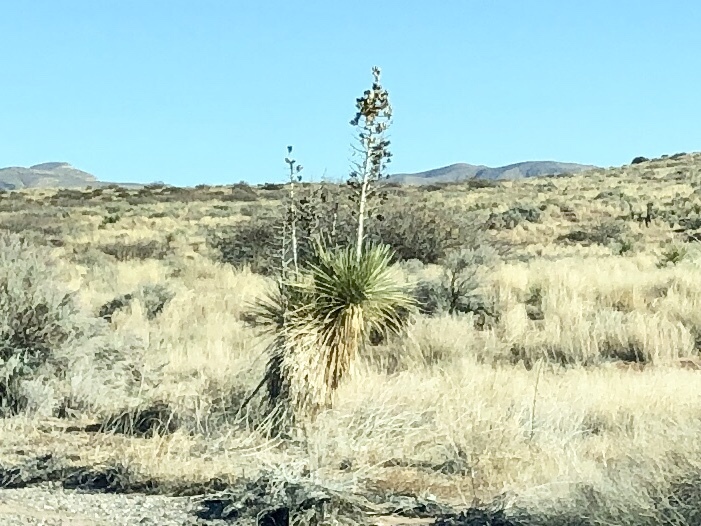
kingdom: Plantae
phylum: Tracheophyta
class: Liliopsida
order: Asparagales
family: Asparagaceae
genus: Yucca
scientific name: Yucca elata
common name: Palmella
